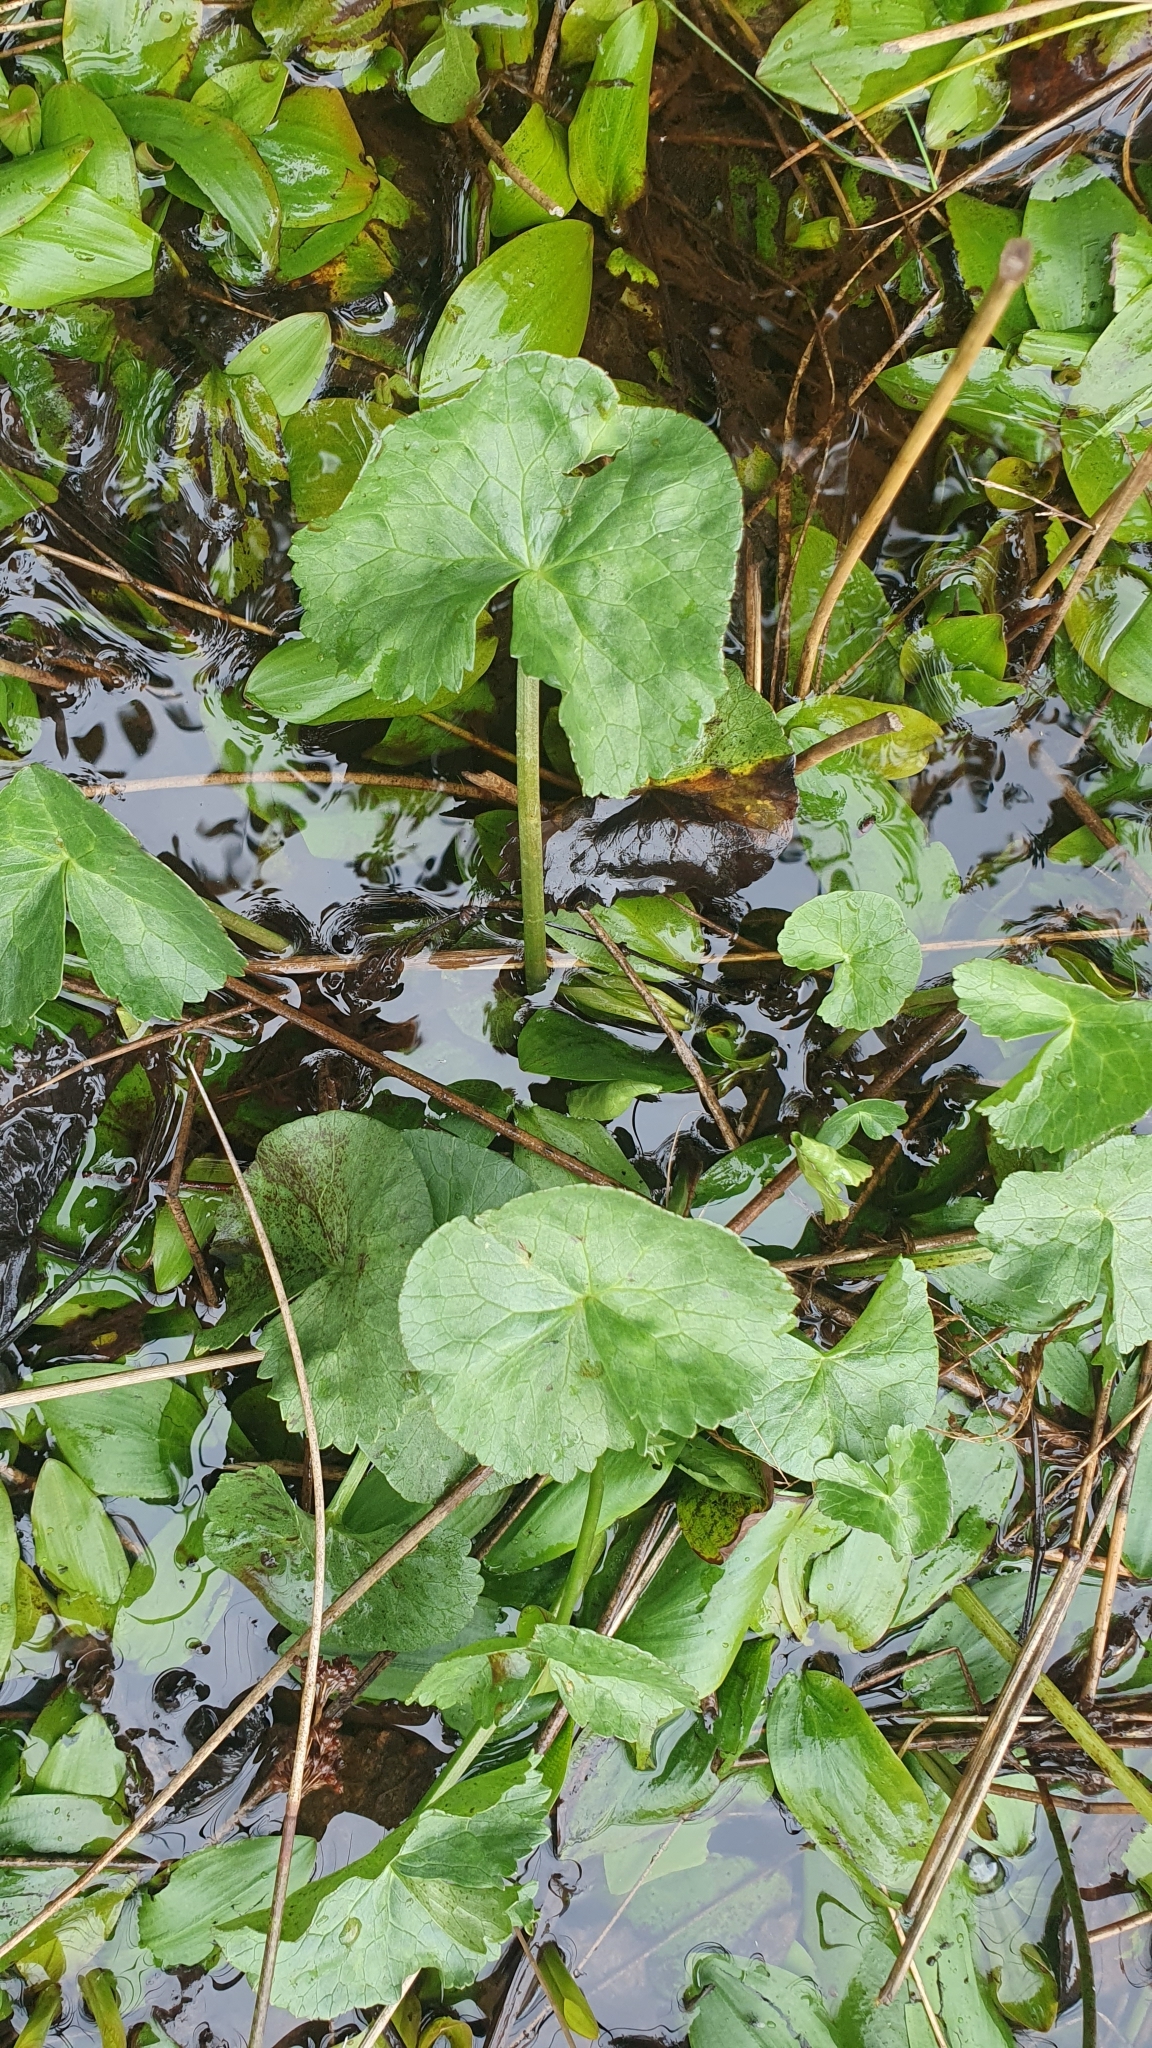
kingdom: Plantae
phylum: Tracheophyta
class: Magnoliopsida
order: Ranunculales
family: Ranunculaceae
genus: Caltha
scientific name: Caltha palustris
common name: Marsh marigold
